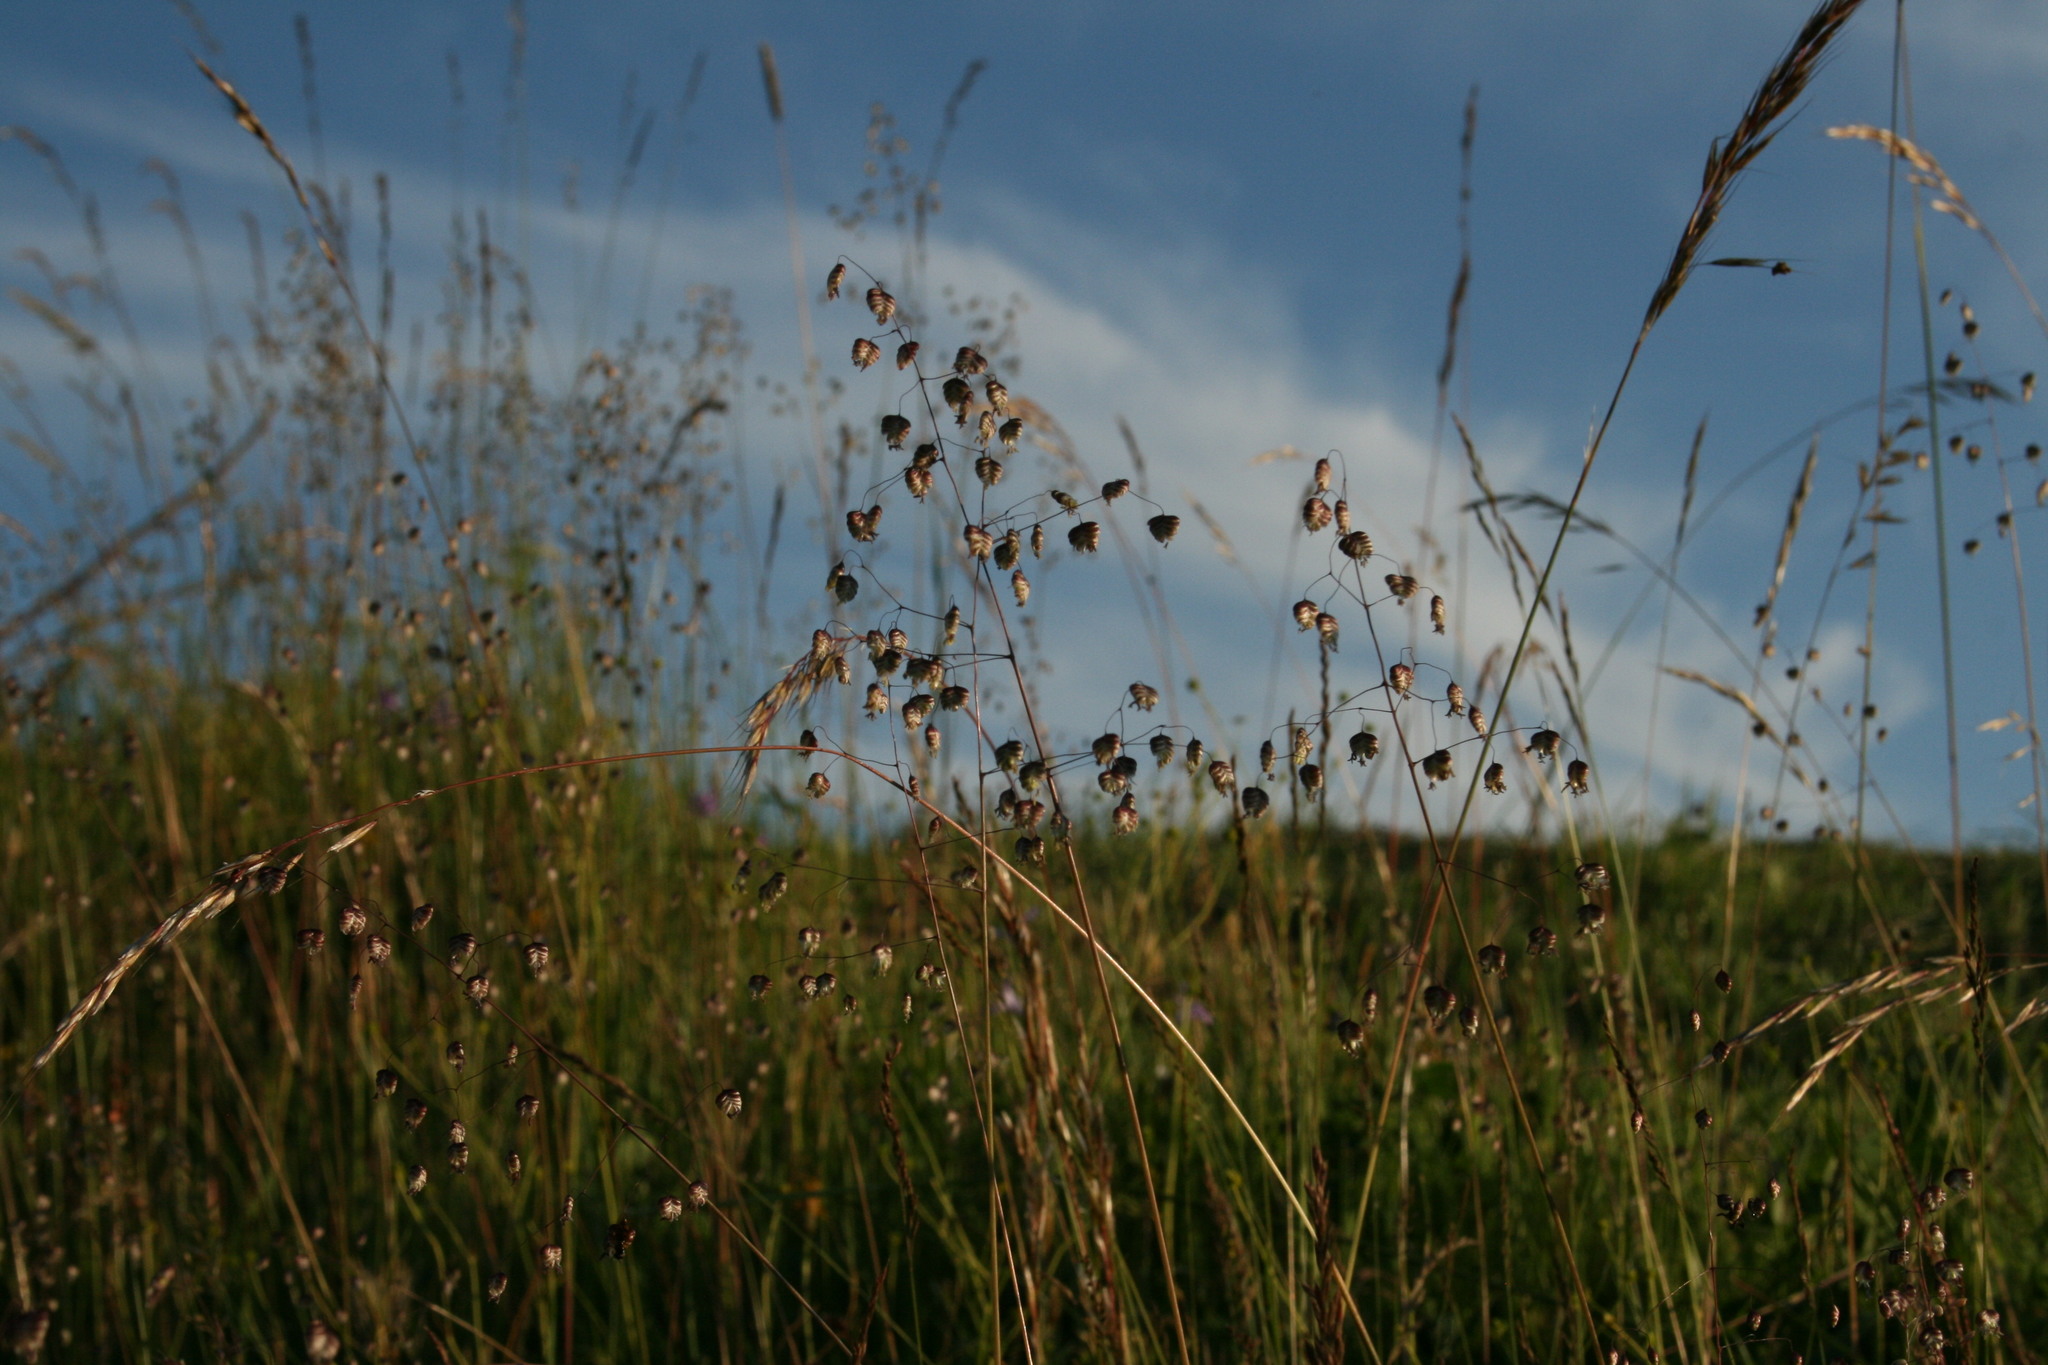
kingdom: Plantae
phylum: Tracheophyta
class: Liliopsida
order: Poales
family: Poaceae
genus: Briza
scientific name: Briza media
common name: Quaking grass
